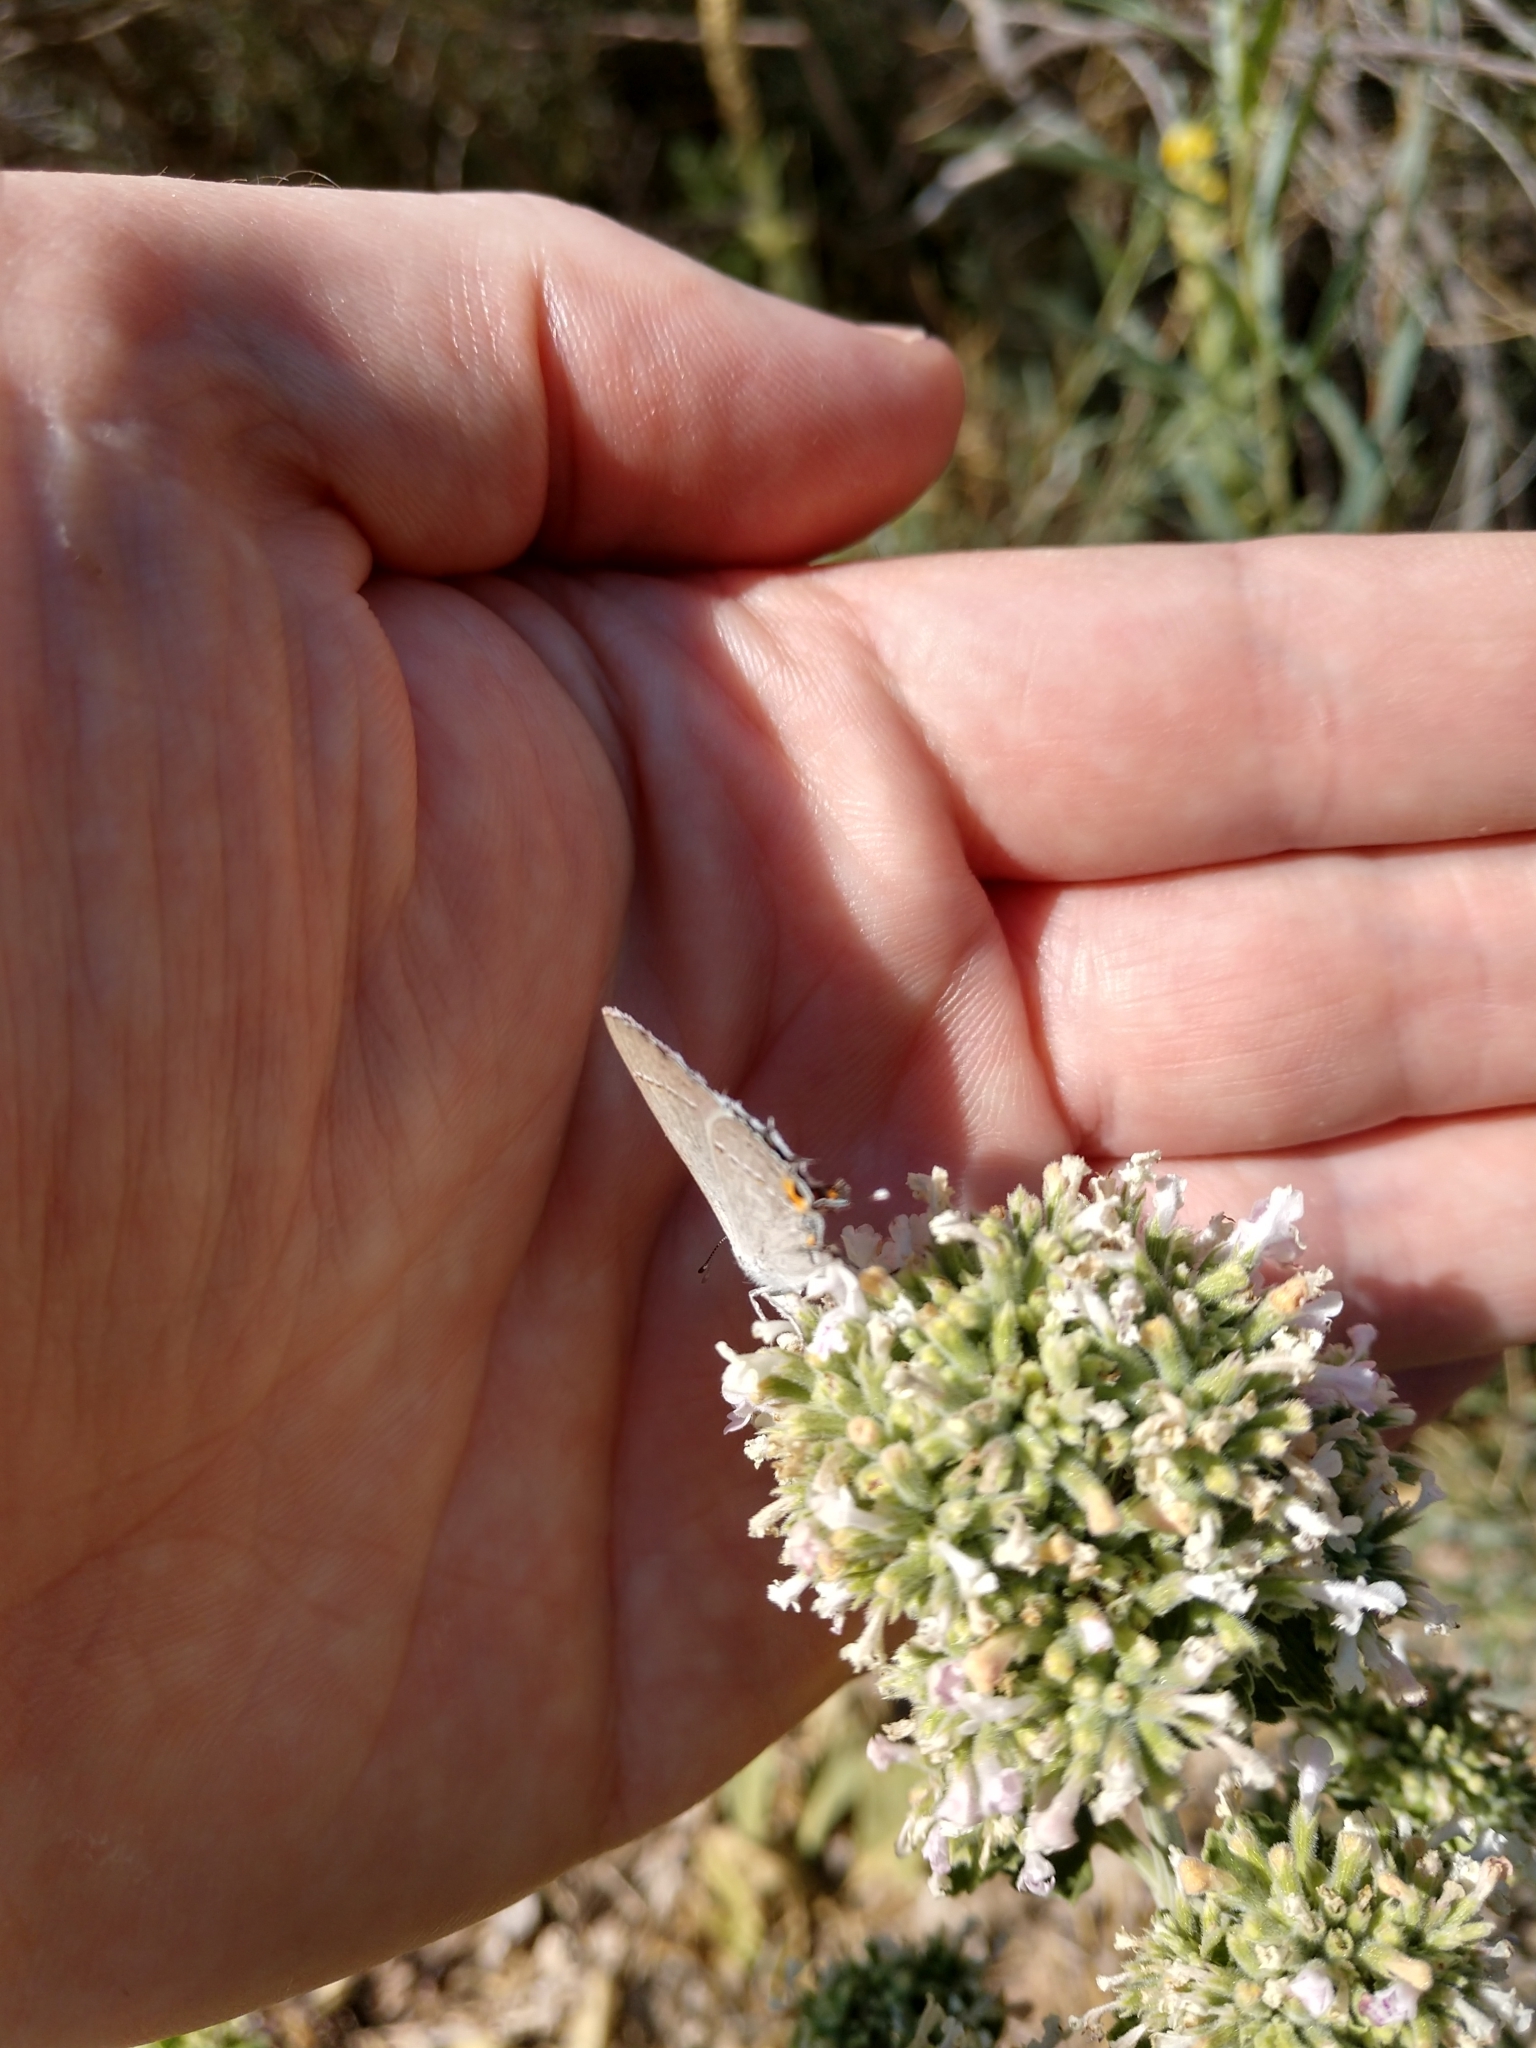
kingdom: Animalia
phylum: Arthropoda
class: Insecta
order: Lepidoptera
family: Lycaenidae
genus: Strymon
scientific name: Strymon melinus
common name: Gray hairstreak
